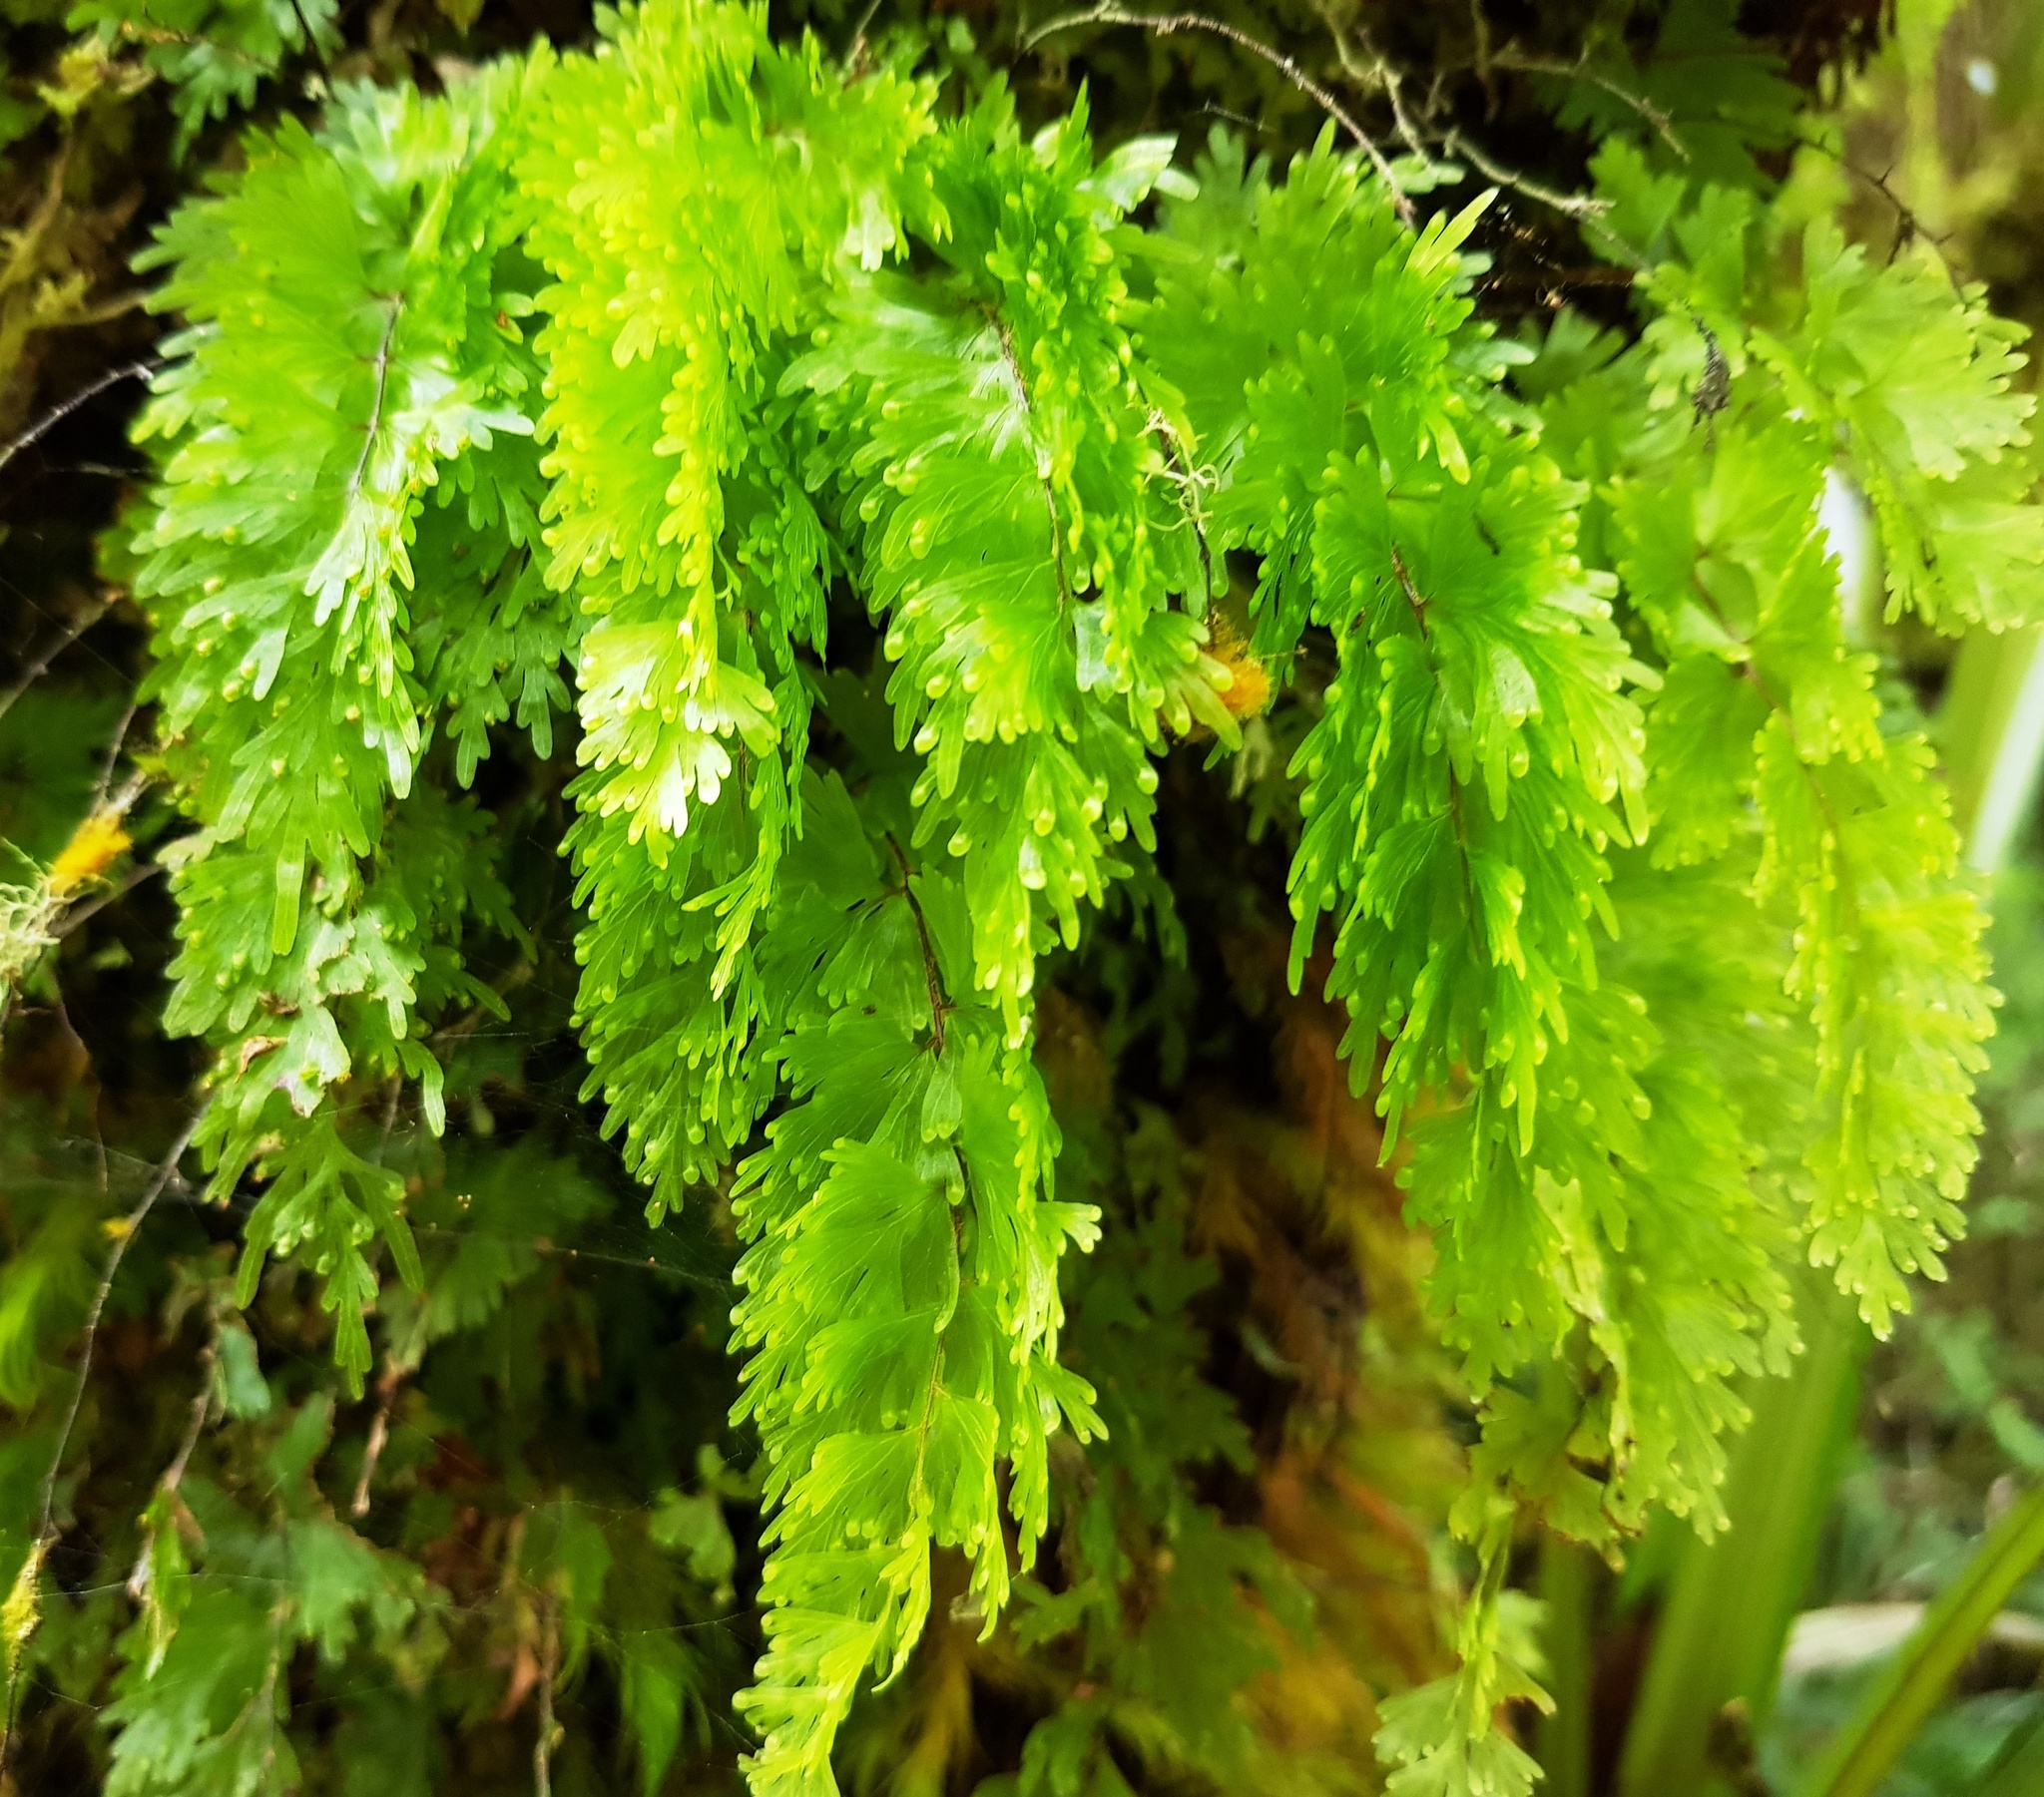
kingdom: Plantae
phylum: Tracheophyta
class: Polypodiopsida
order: Hymenophyllales
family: Hymenophyllaceae
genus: Hymenophyllum
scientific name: Hymenophyllum flabellatum
